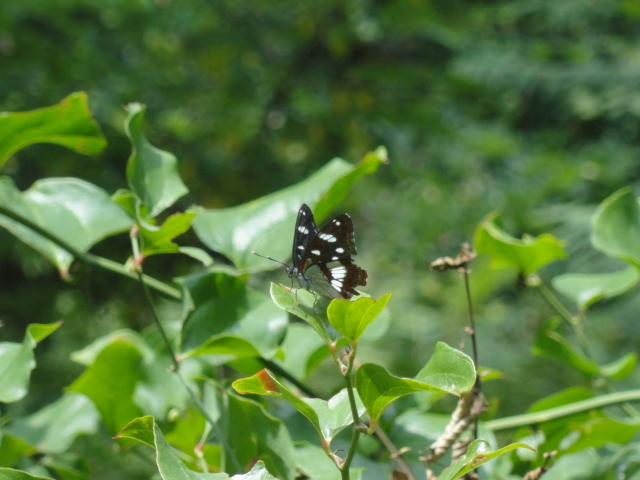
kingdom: Animalia
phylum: Arthropoda
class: Insecta
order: Lepidoptera
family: Nymphalidae
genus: Limenitis
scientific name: Limenitis reducta
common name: Southern white admiral
